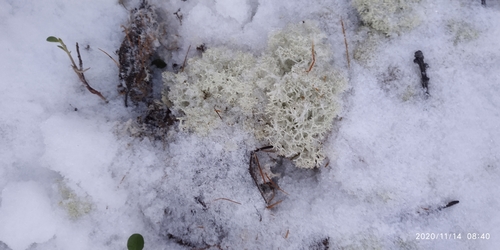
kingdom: Fungi
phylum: Ascomycota
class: Lecanoromycetes
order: Lecanorales
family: Cladoniaceae
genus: Cladonia
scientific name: Cladonia portentosa
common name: Reindeer lichen
